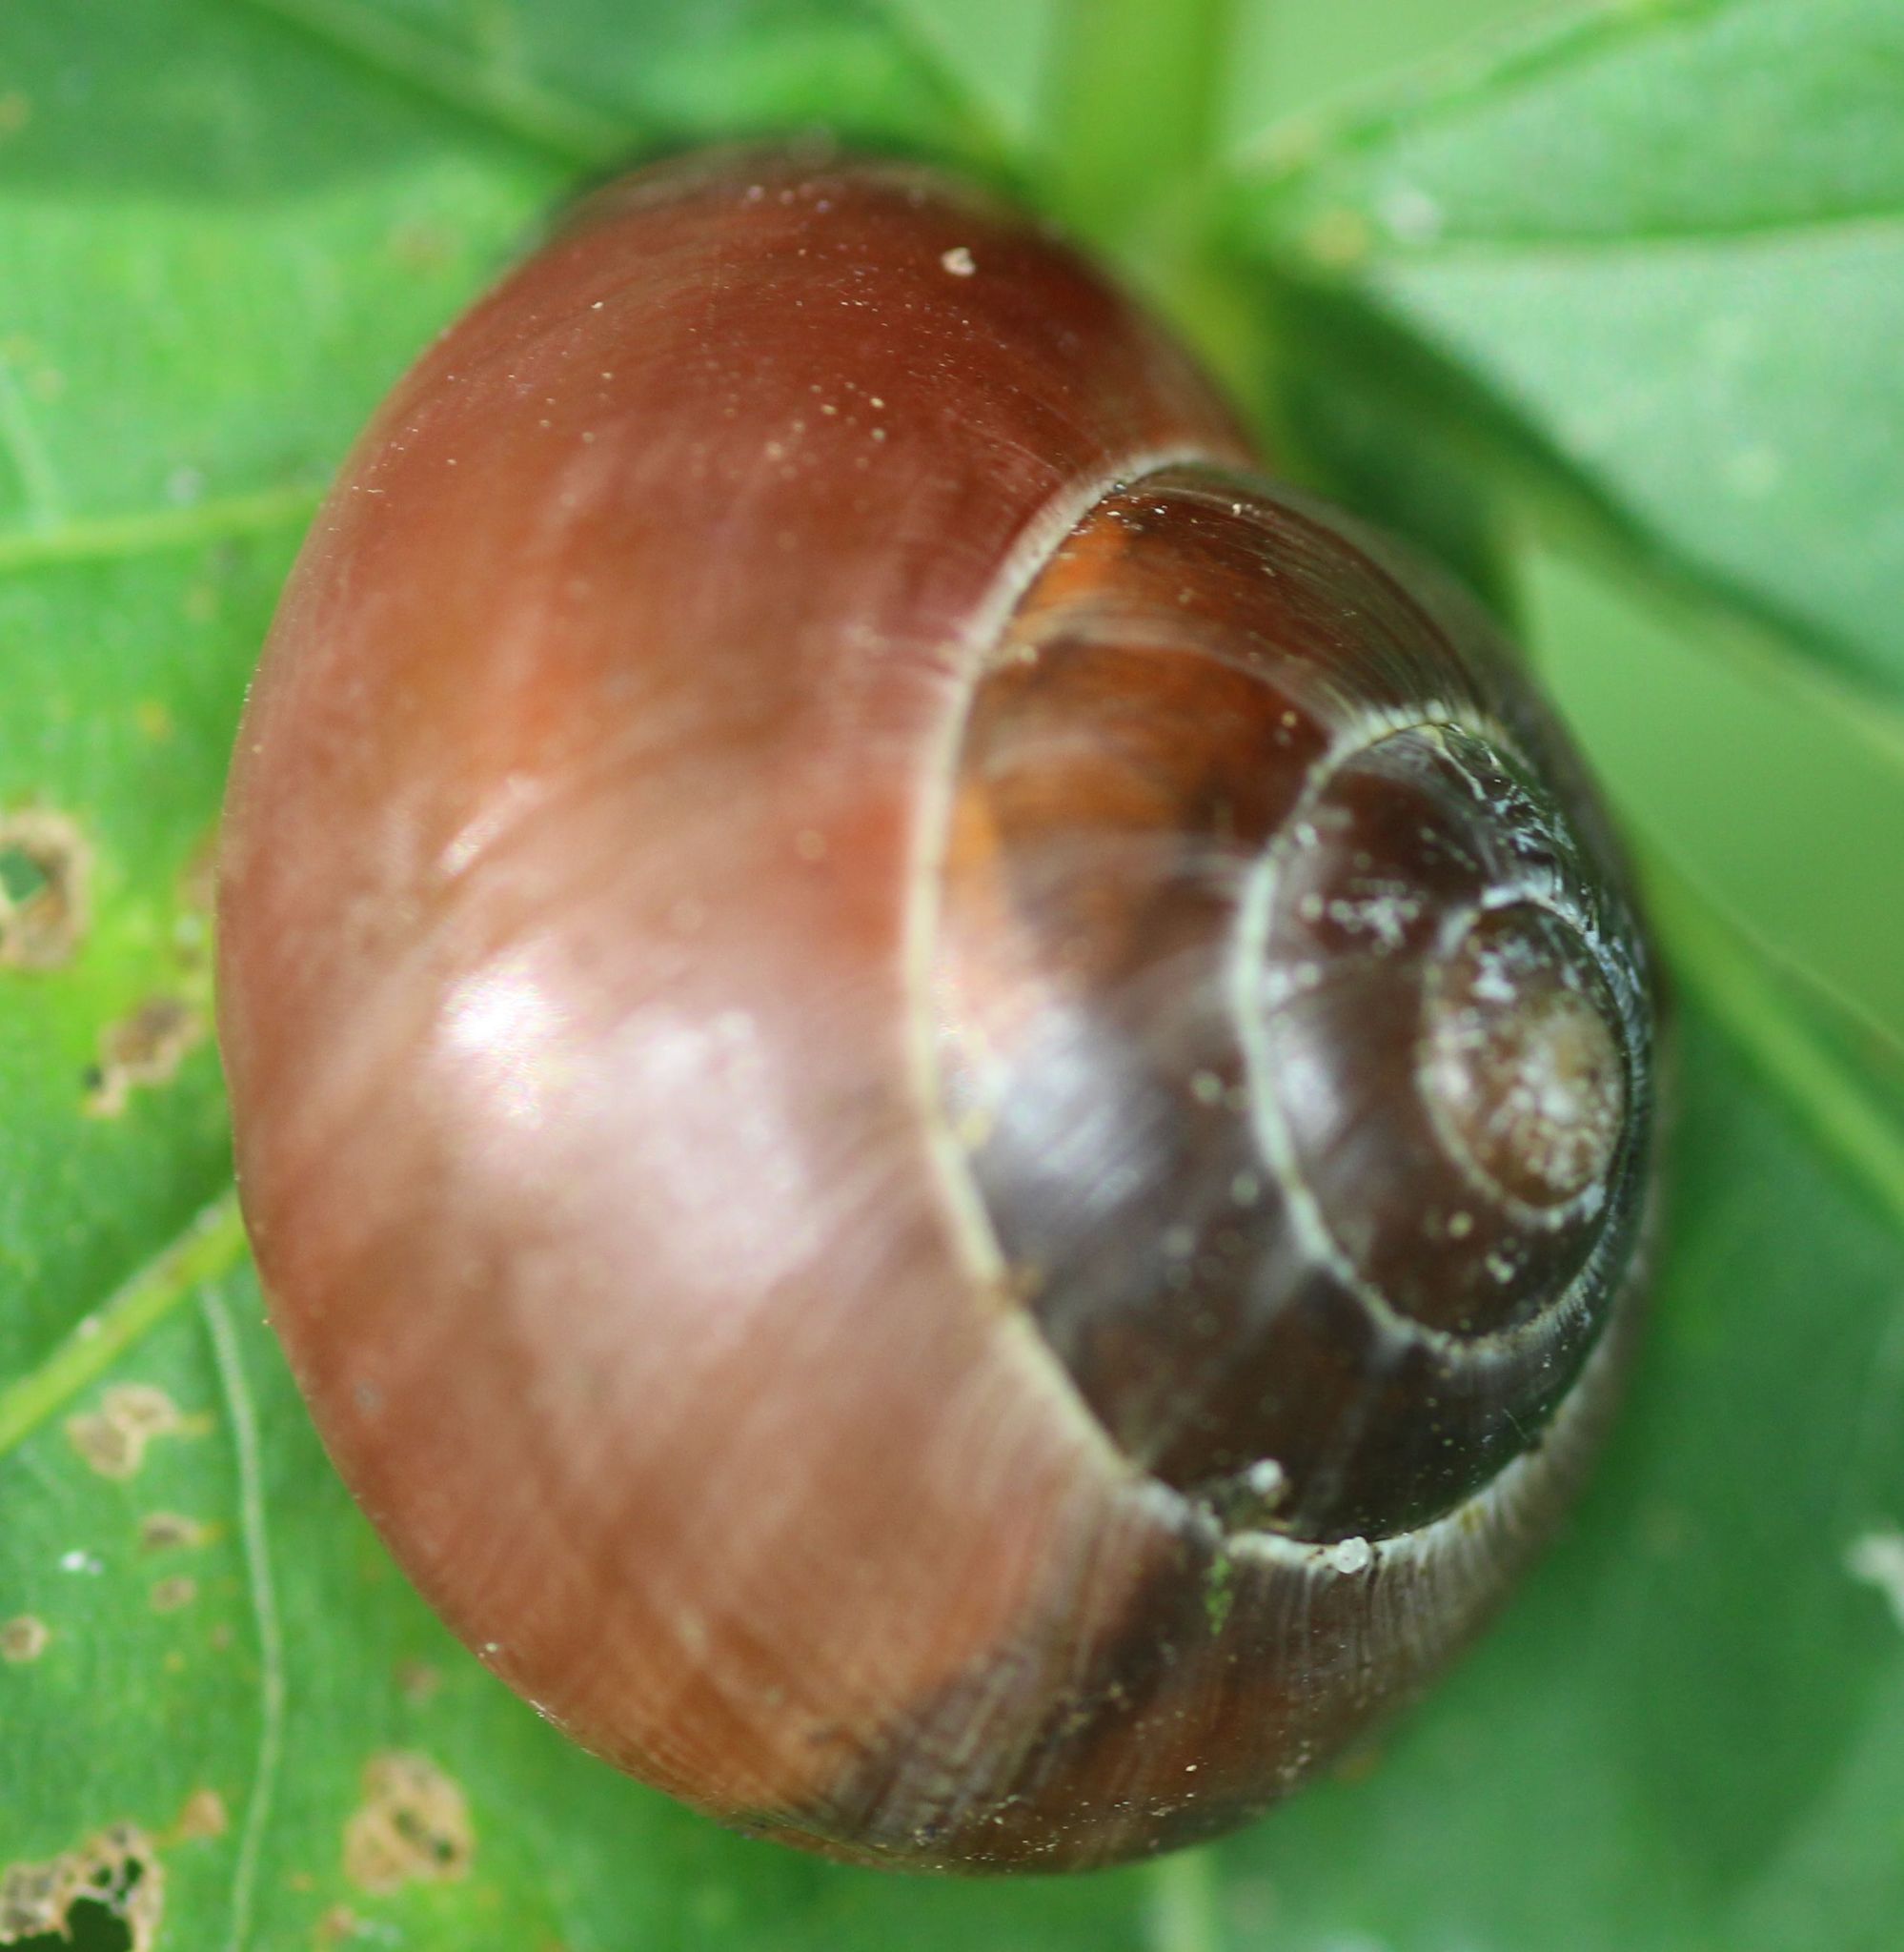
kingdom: Animalia
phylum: Mollusca
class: Gastropoda
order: Stylommatophora
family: Helicidae
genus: Cepaea
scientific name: Cepaea
